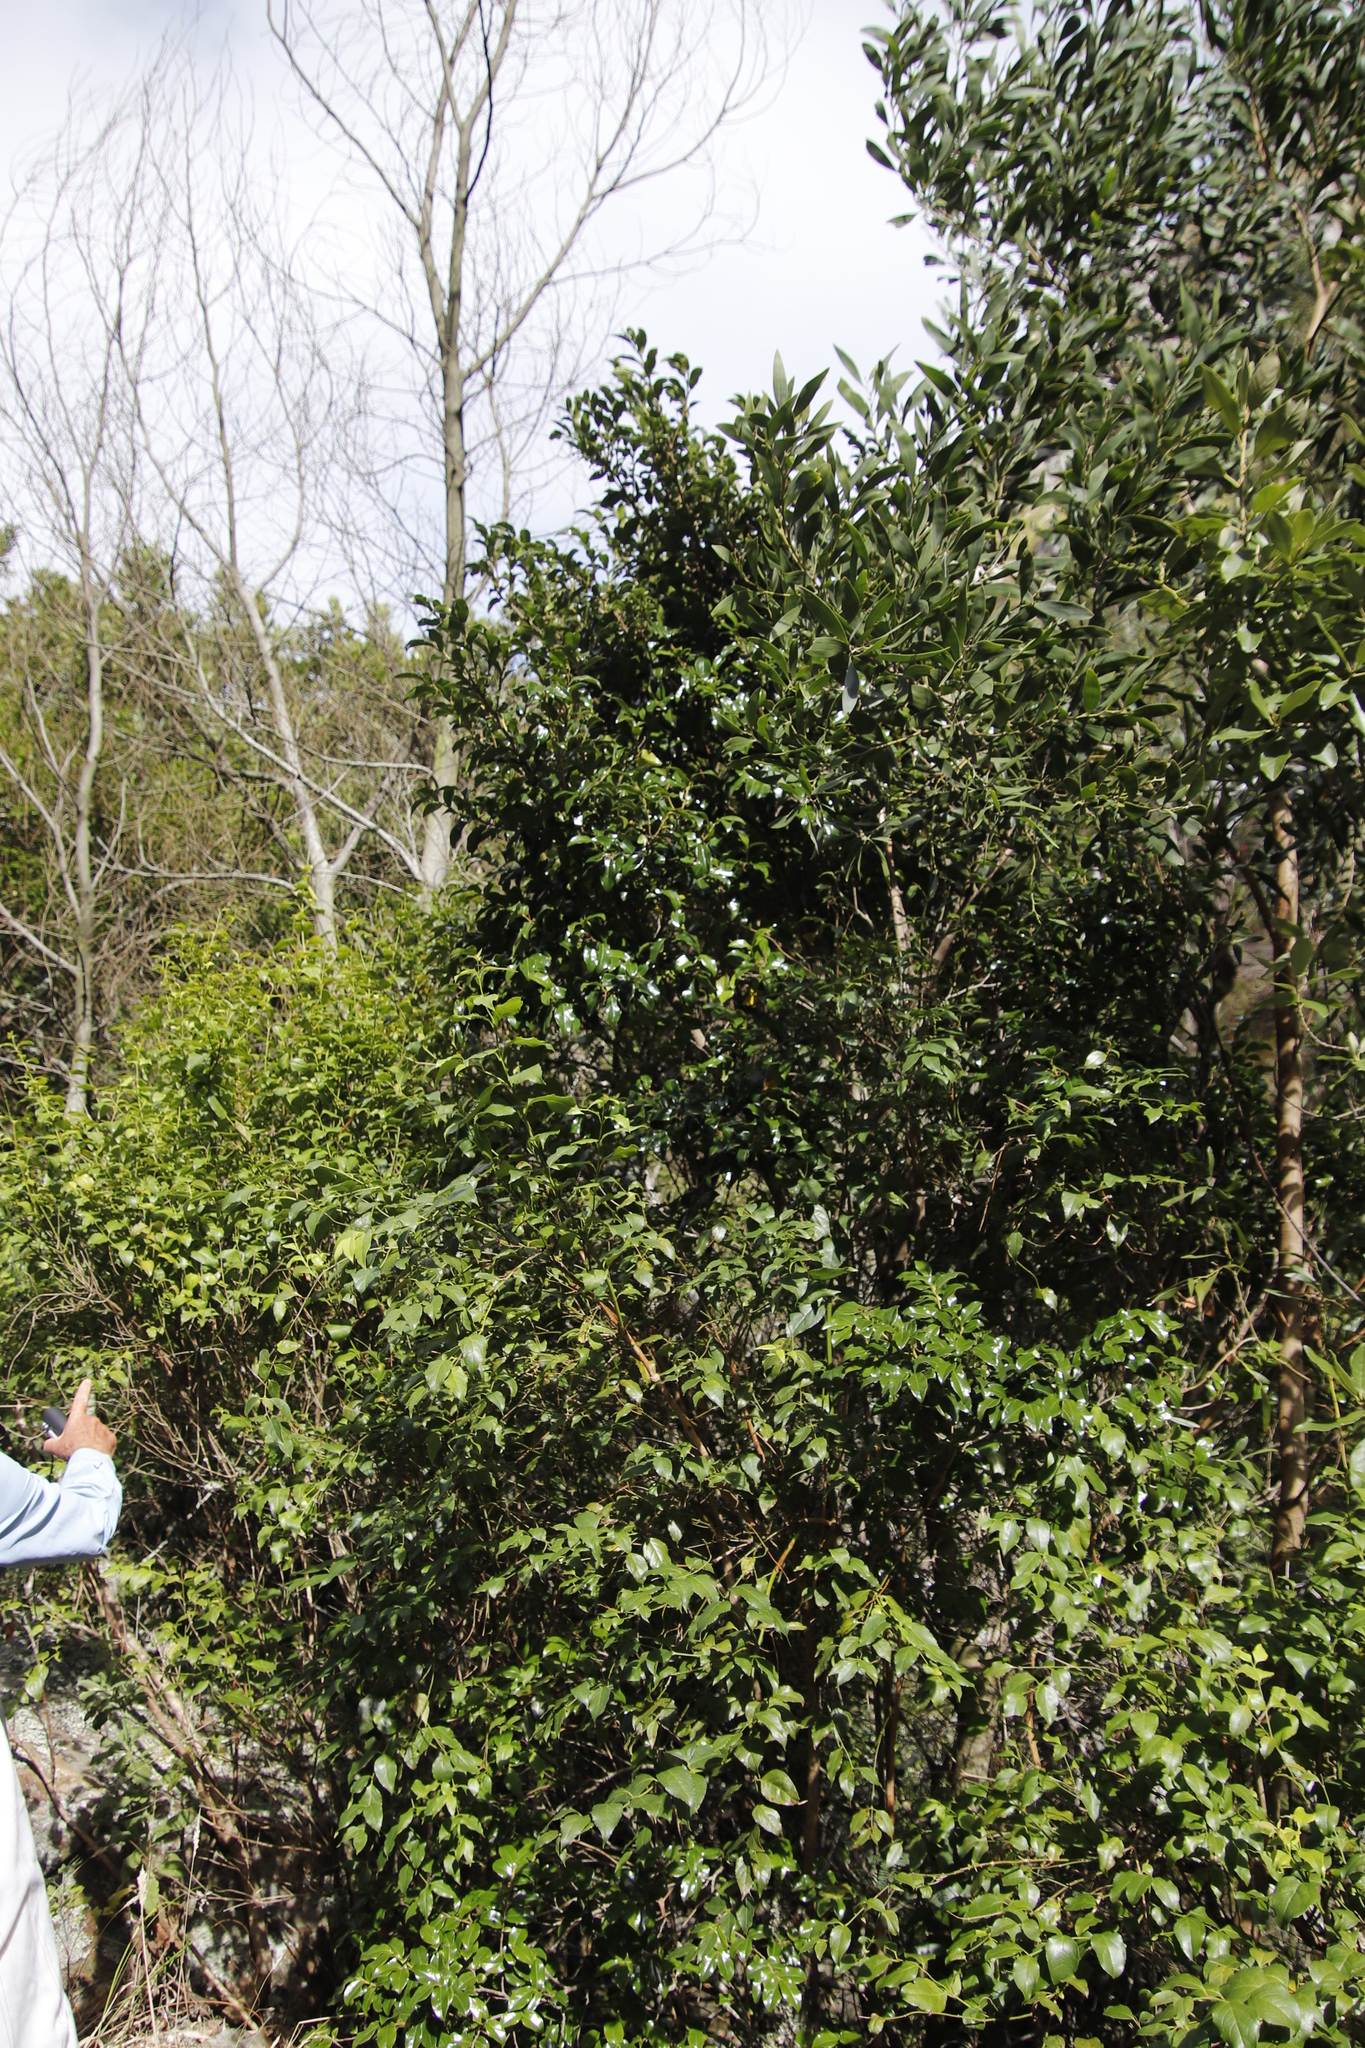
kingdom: Plantae
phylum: Tracheophyta
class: Magnoliopsida
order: Fabales
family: Fabaceae
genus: Acacia
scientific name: Acacia melanoxylon
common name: Blackwood
